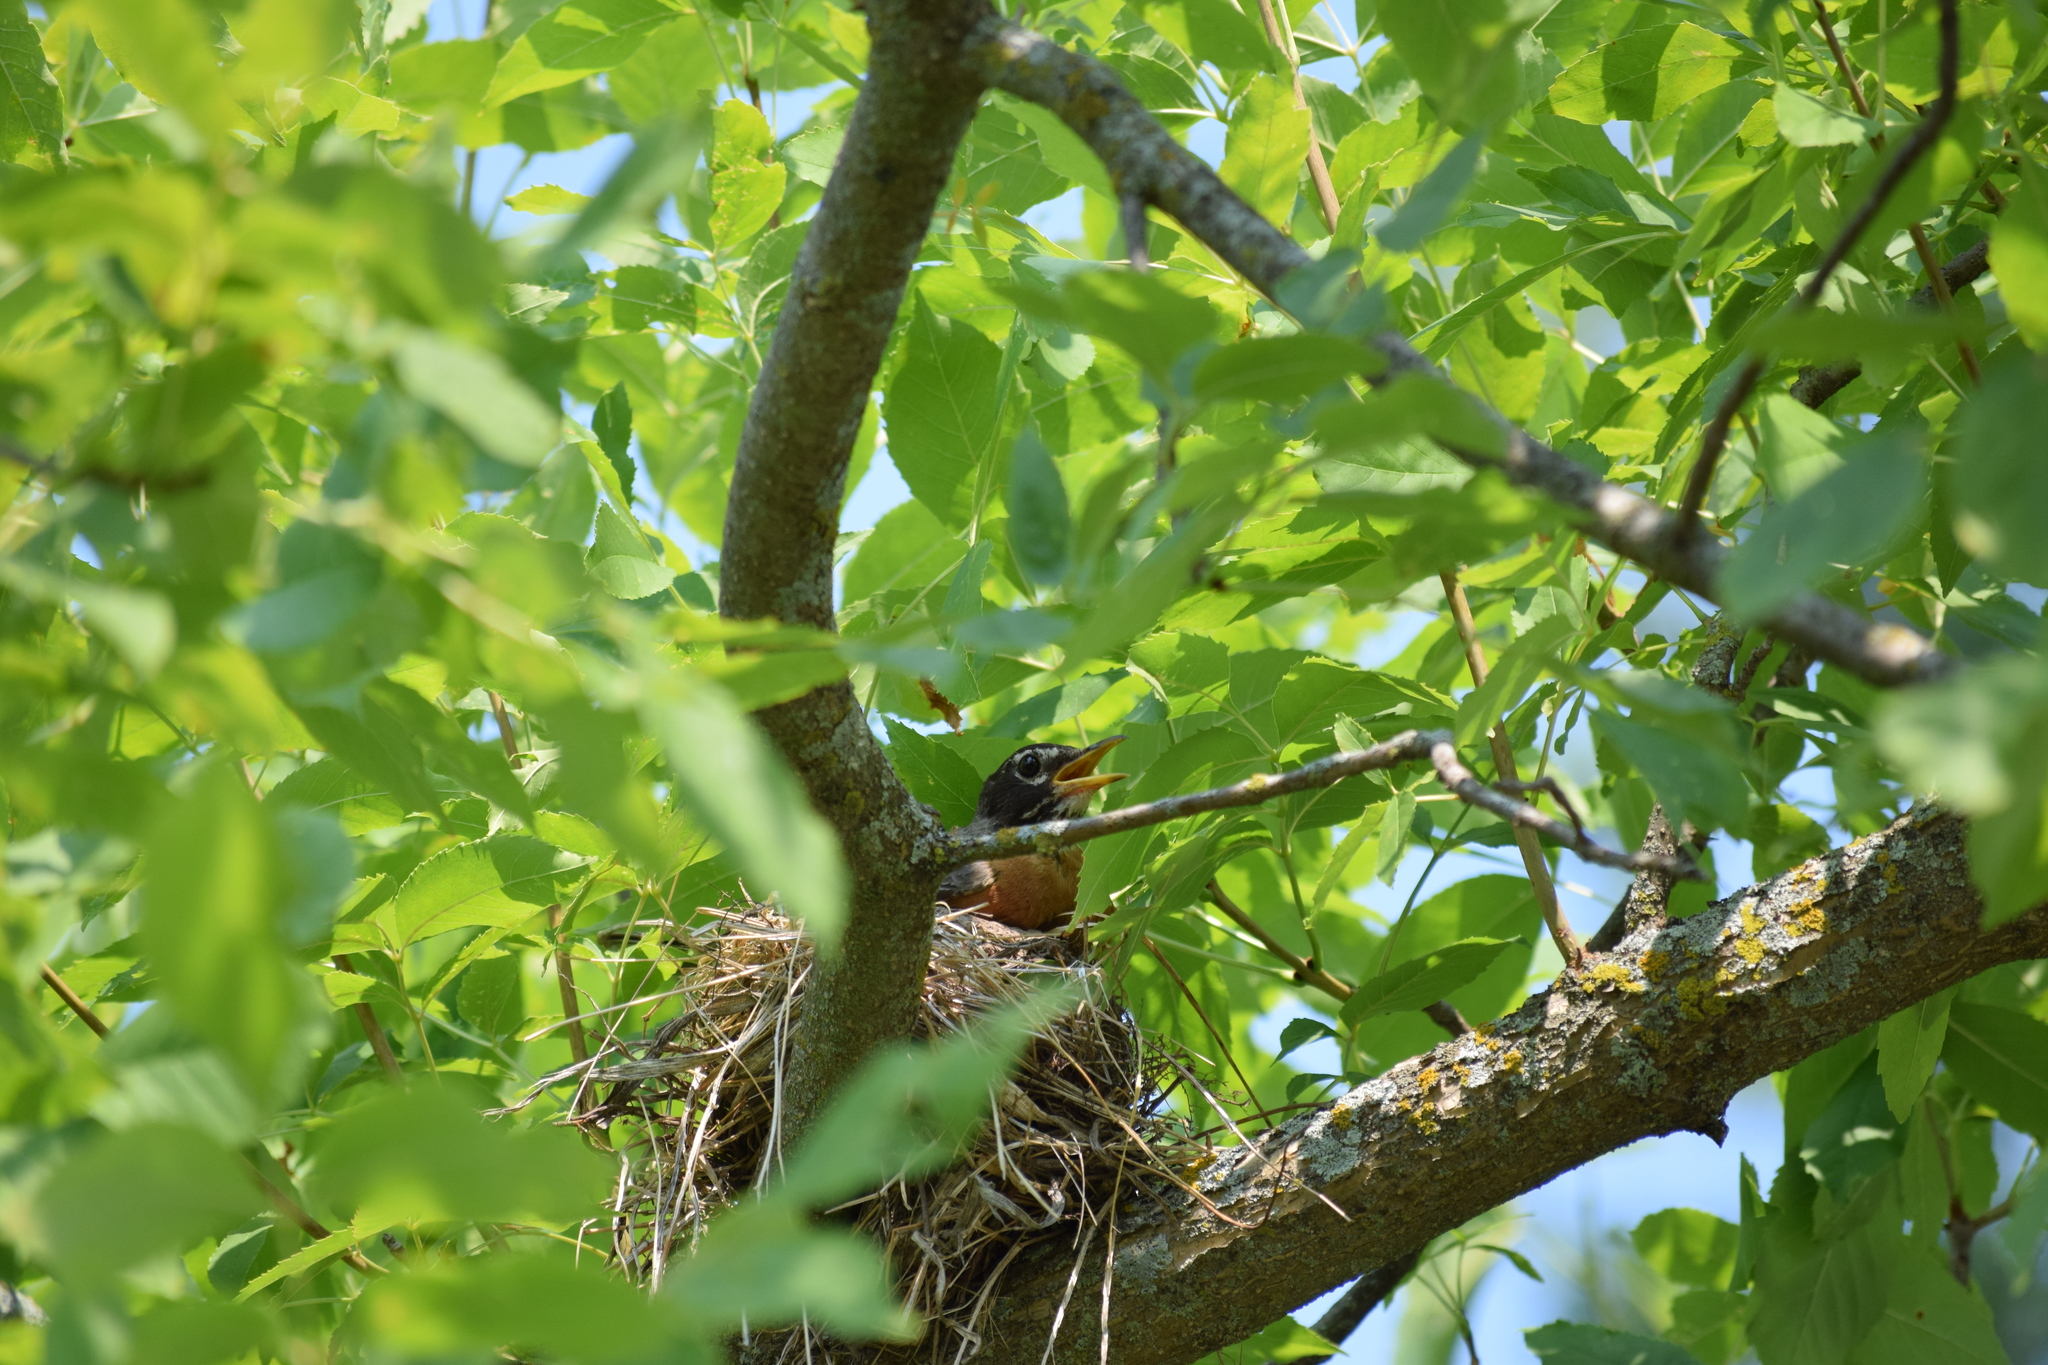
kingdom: Animalia
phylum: Chordata
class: Aves
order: Passeriformes
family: Turdidae
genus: Turdus
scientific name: Turdus migratorius
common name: American robin
